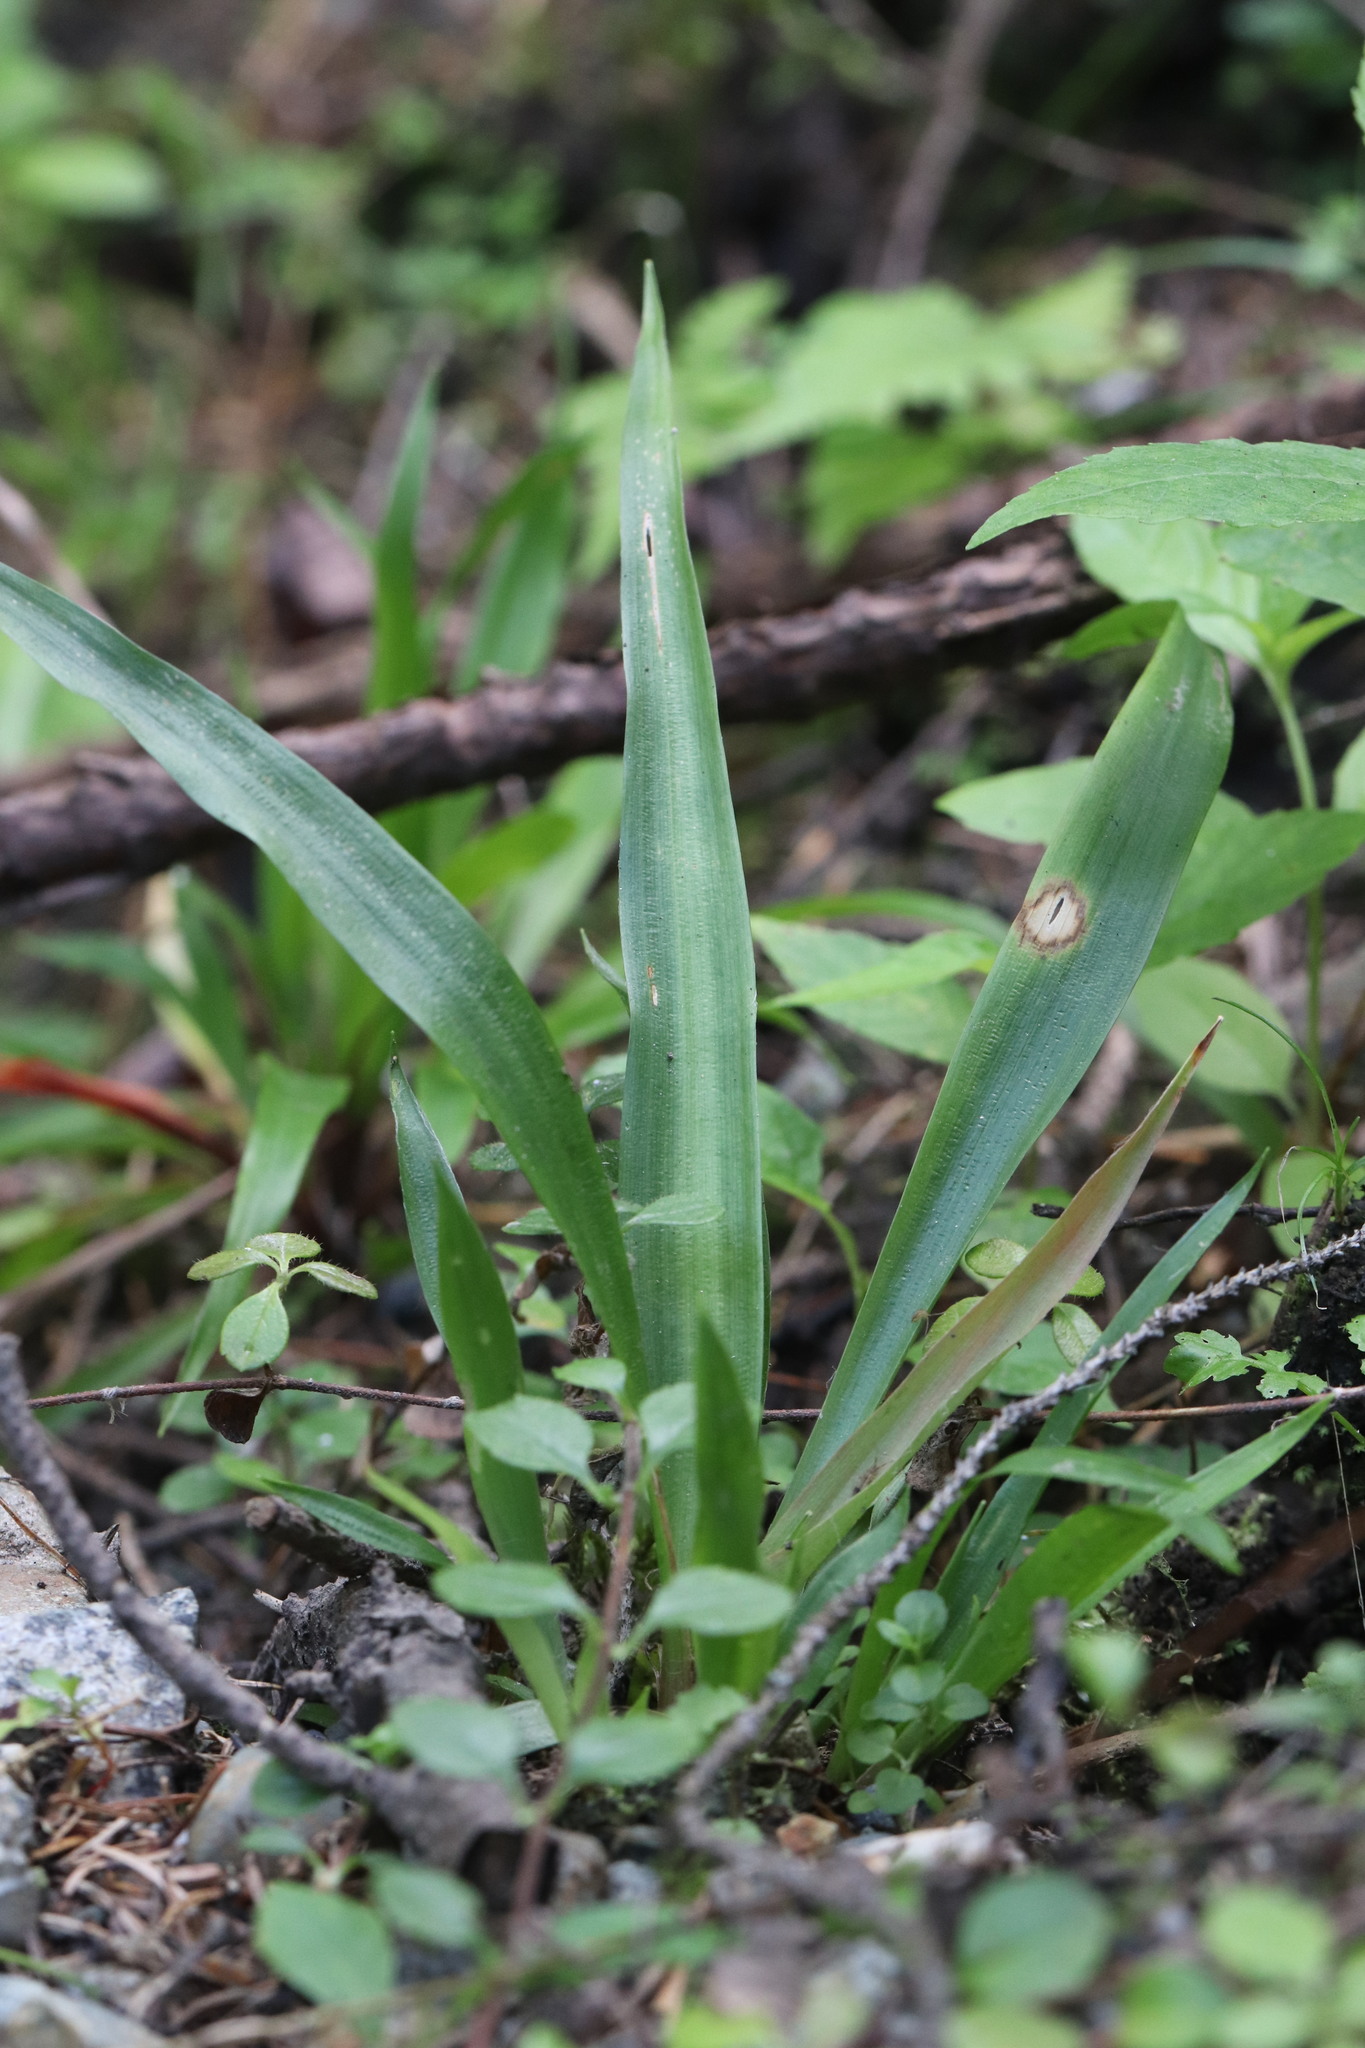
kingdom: Plantae
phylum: Tracheophyta
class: Liliopsida
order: Poales
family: Juncaceae
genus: Luzula
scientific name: Luzula pilosa
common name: Hairy wood-rush
